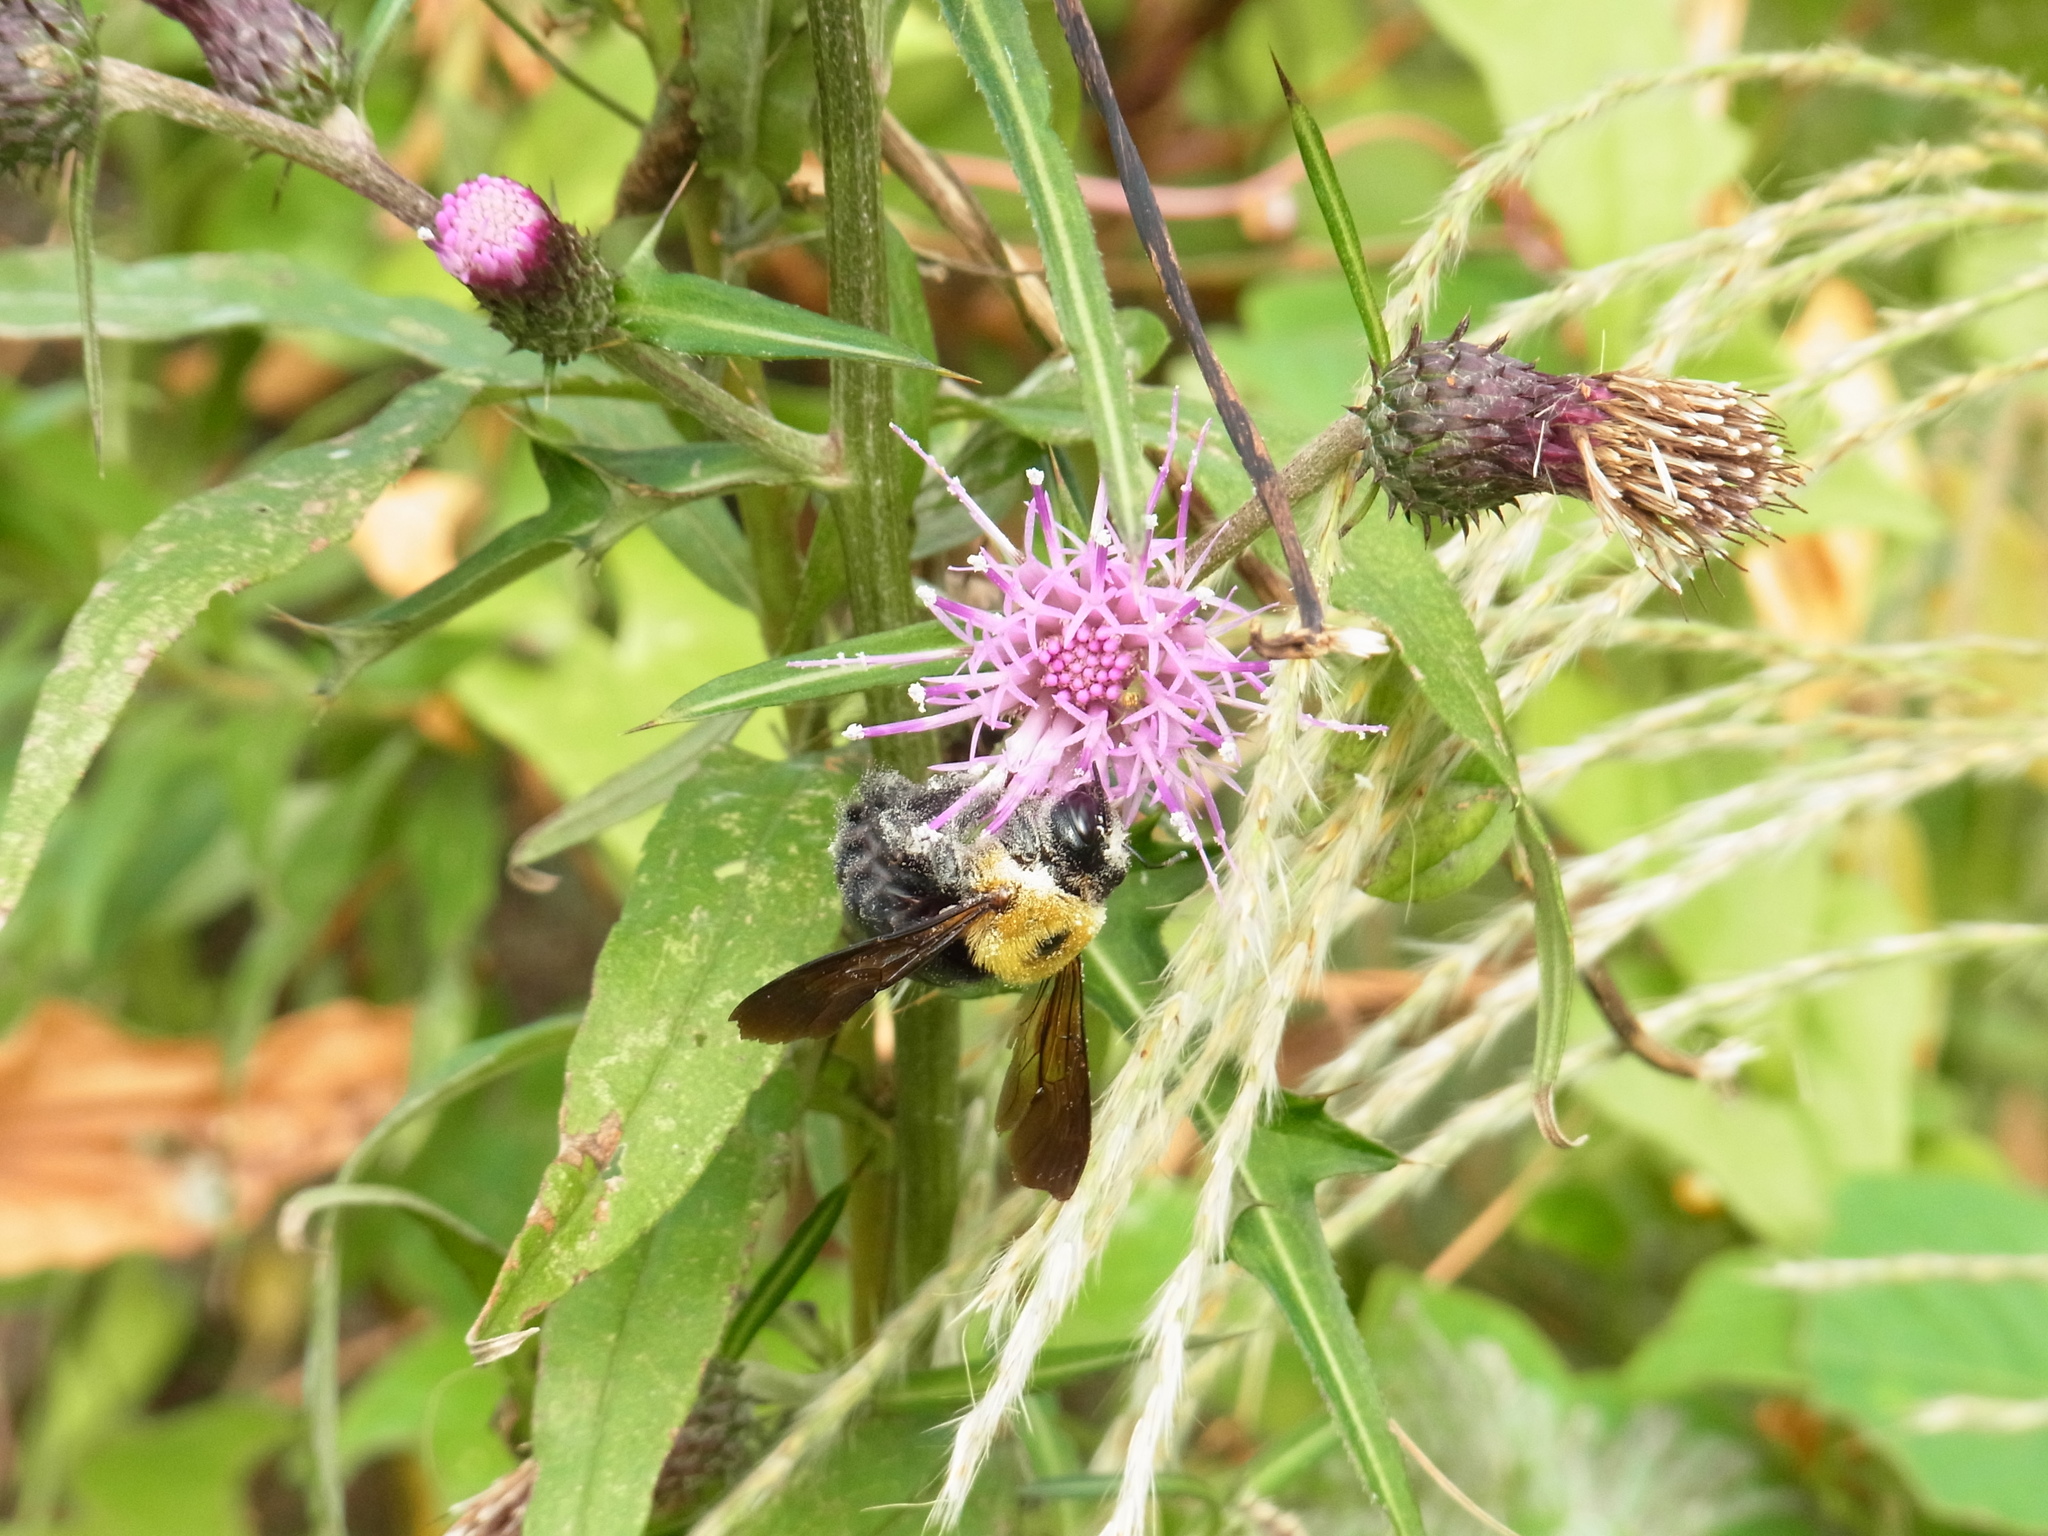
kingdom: Animalia
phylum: Arthropoda
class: Insecta
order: Hymenoptera
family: Apidae
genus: Xylocopa
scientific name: Xylocopa appendiculata
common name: Japanese carpenter bee
